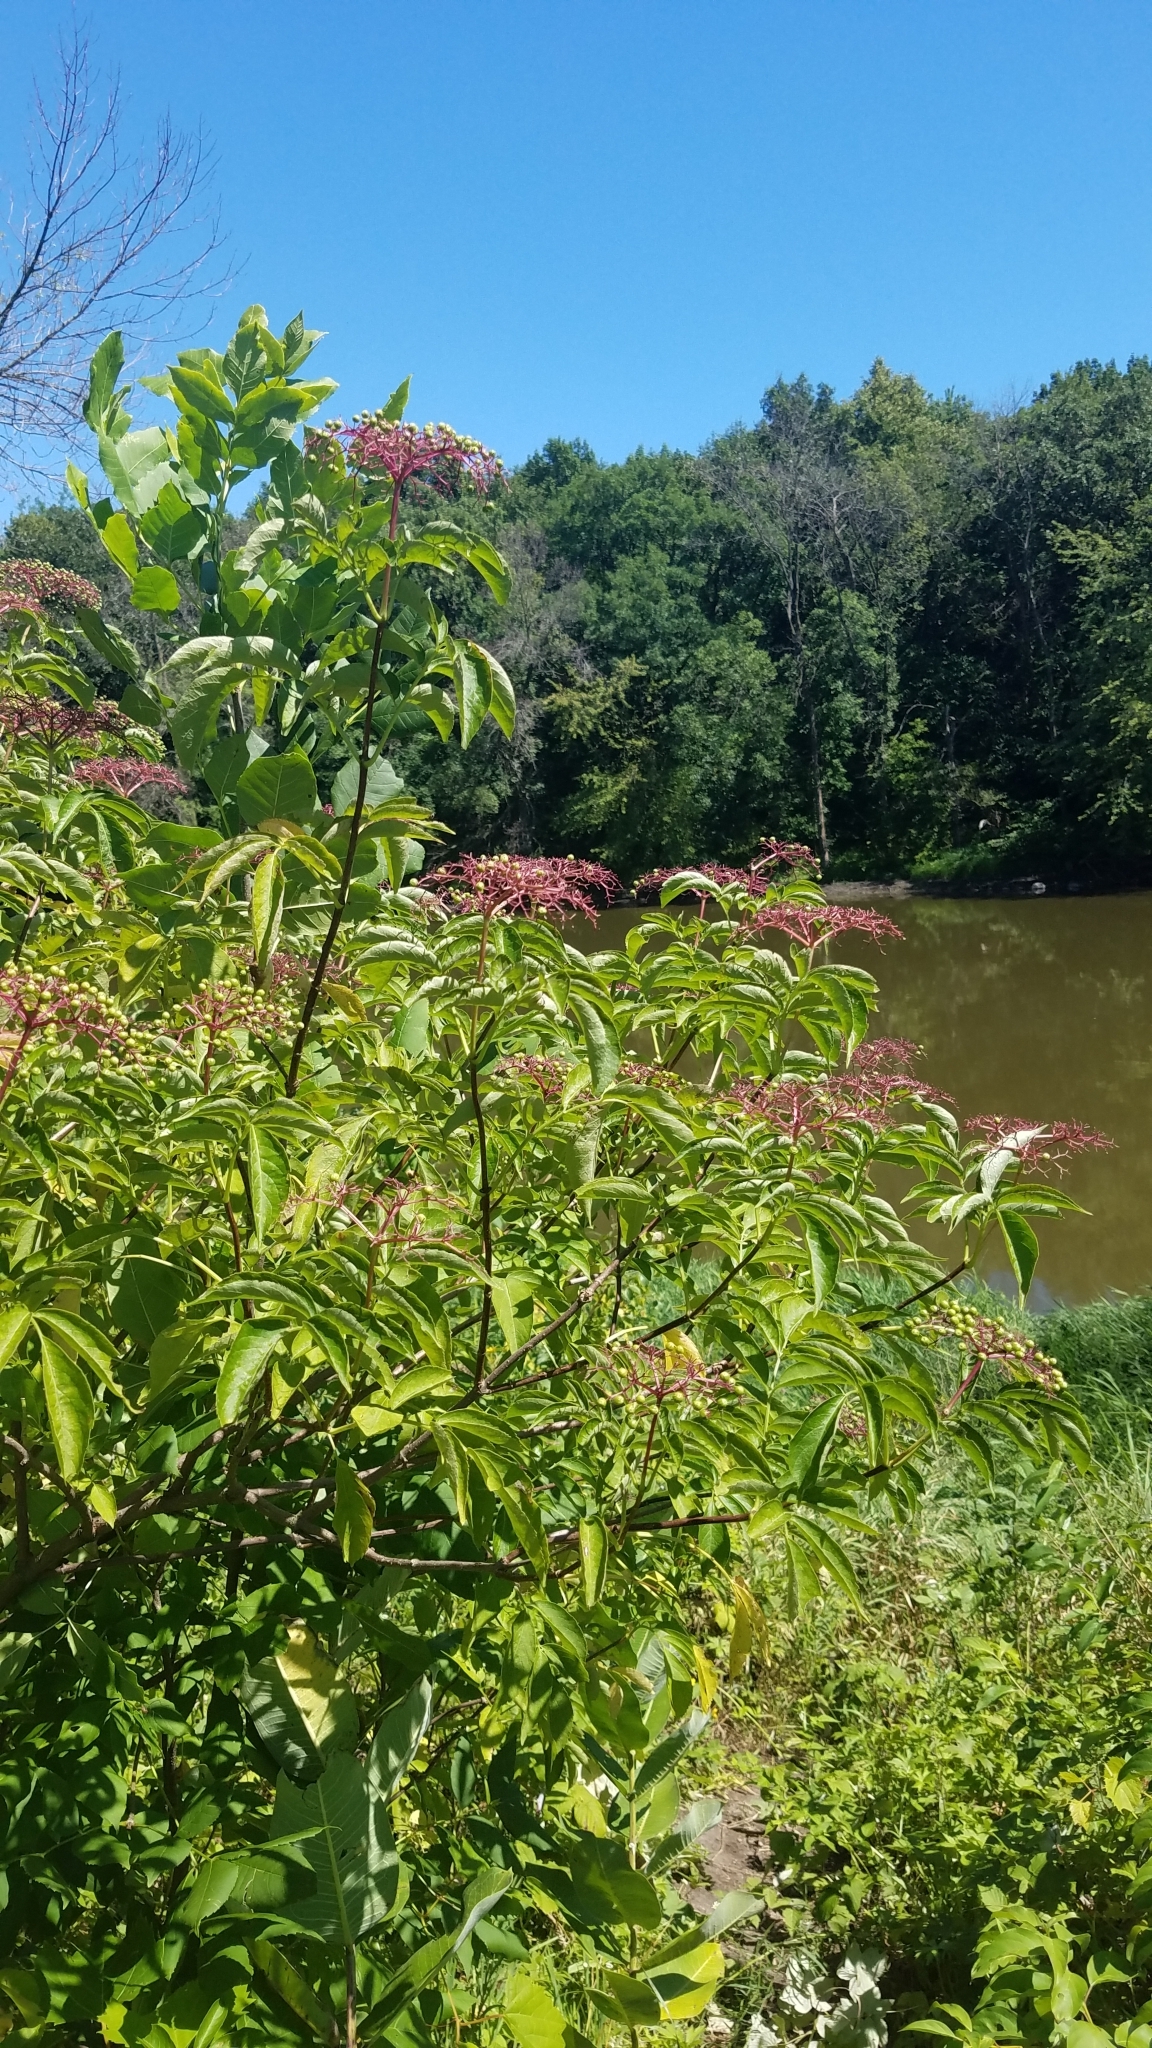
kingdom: Plantae
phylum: Tracheophyta
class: Magnoliopsida
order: Dipsacales
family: Viburnaceae
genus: Sambucus
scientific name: Sambucus canadensis
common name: American elder
